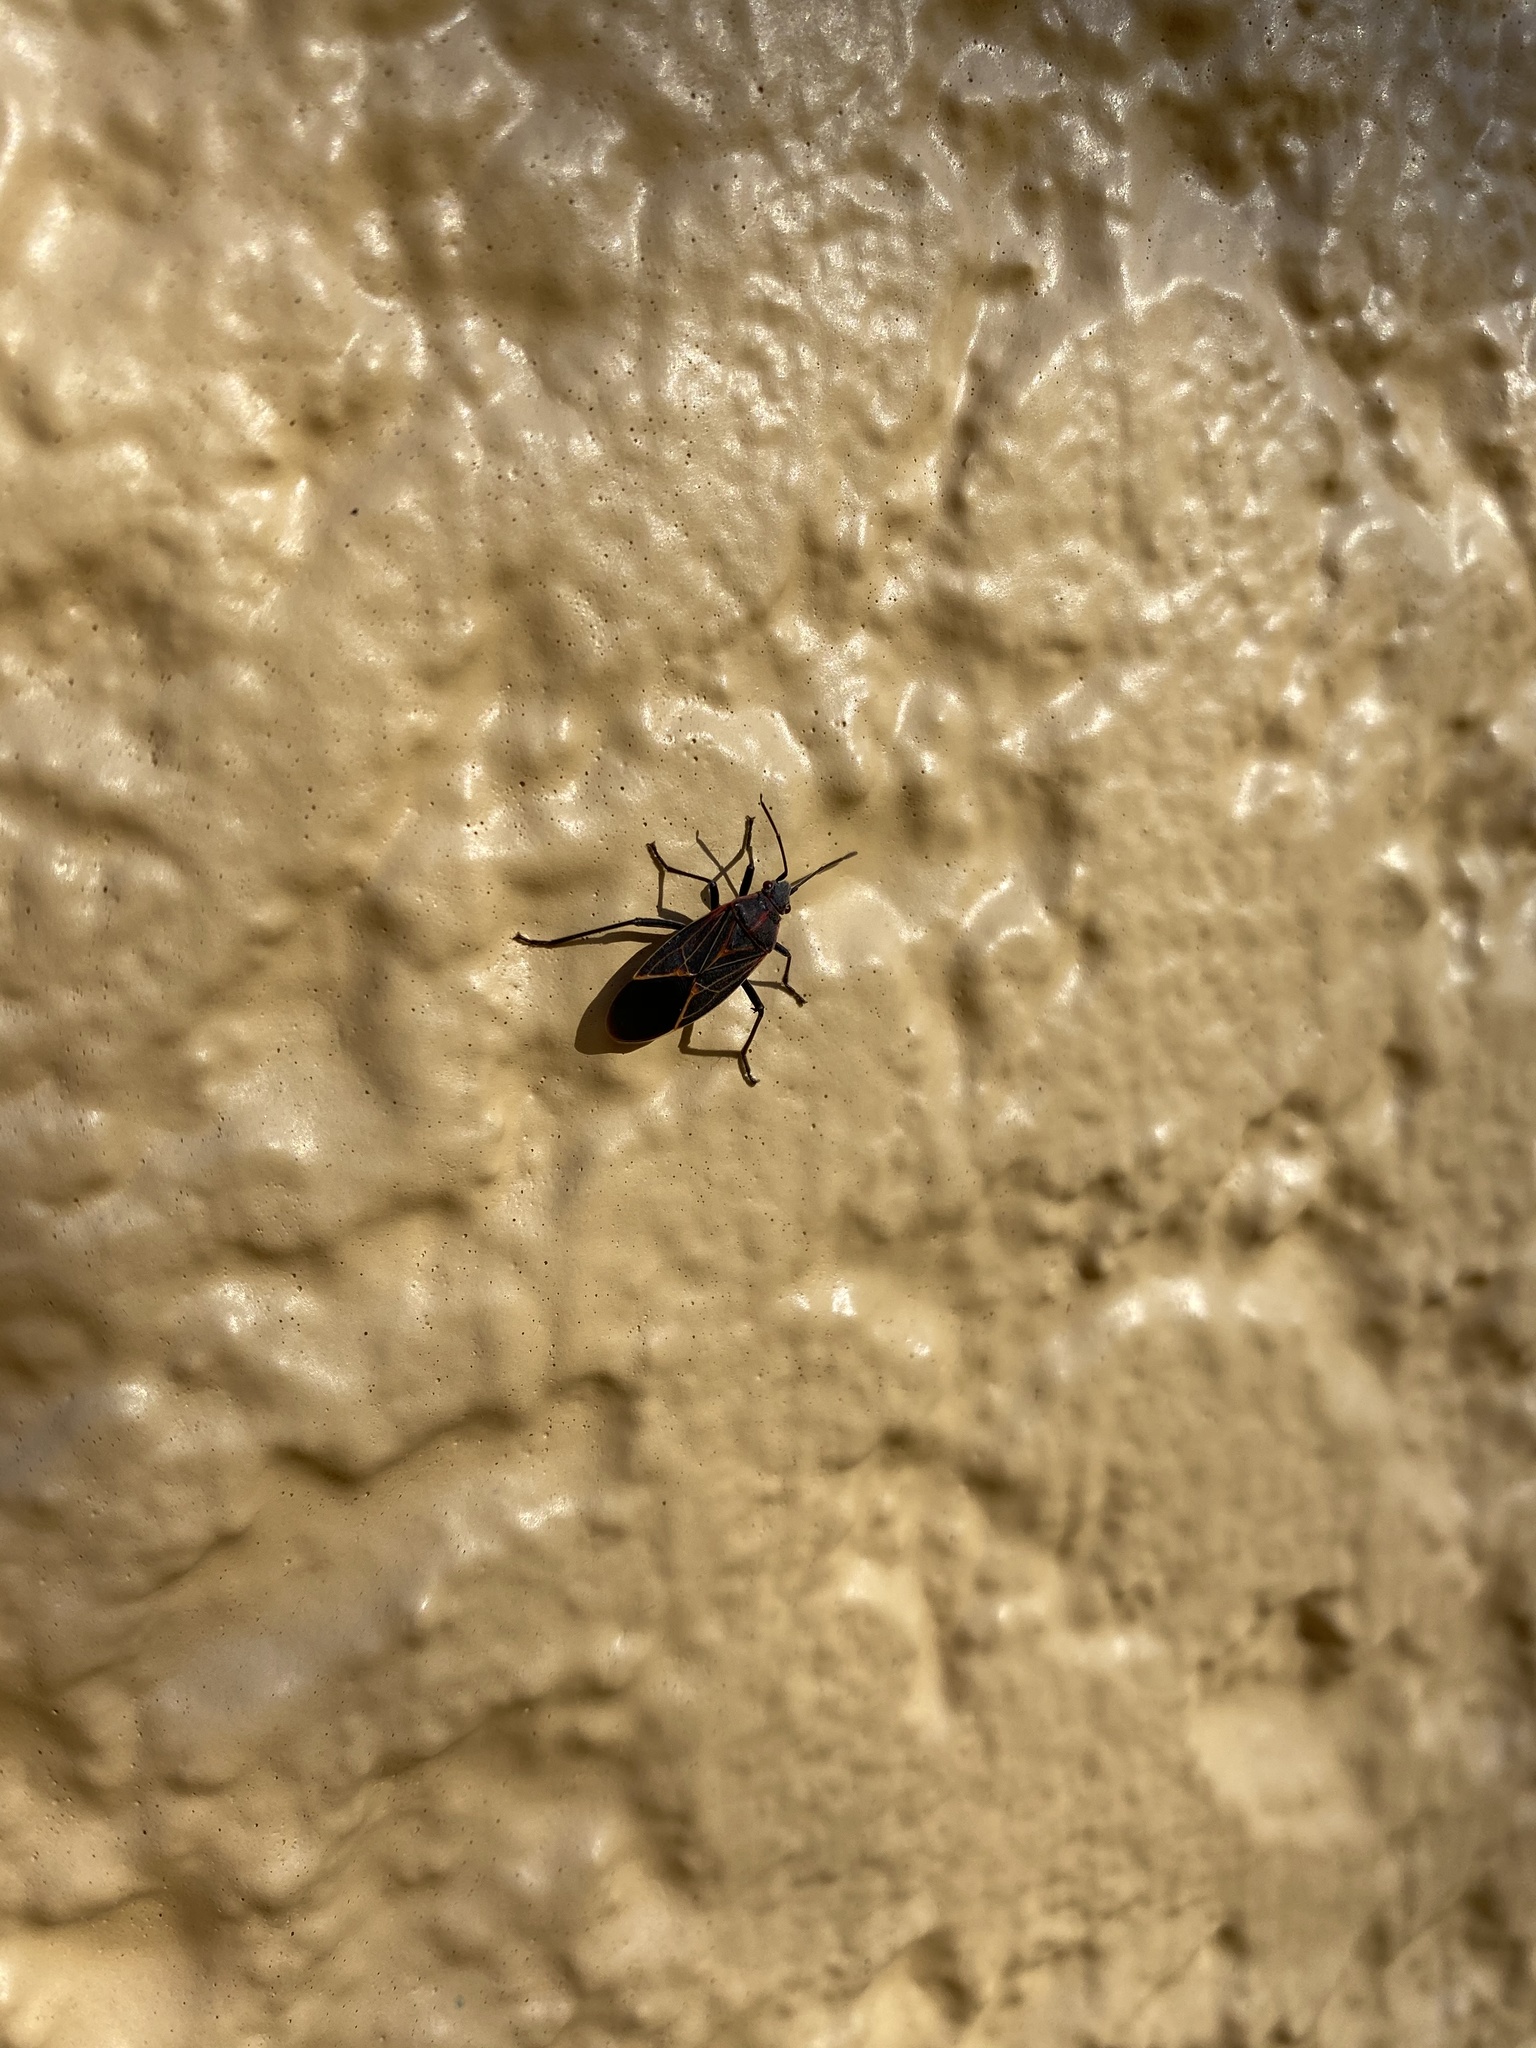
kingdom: Animalia
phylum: Arthropoda
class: Insecta
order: Hemiptera
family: Rhopalidae
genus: Boisea
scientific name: Boisea rubrolineata
